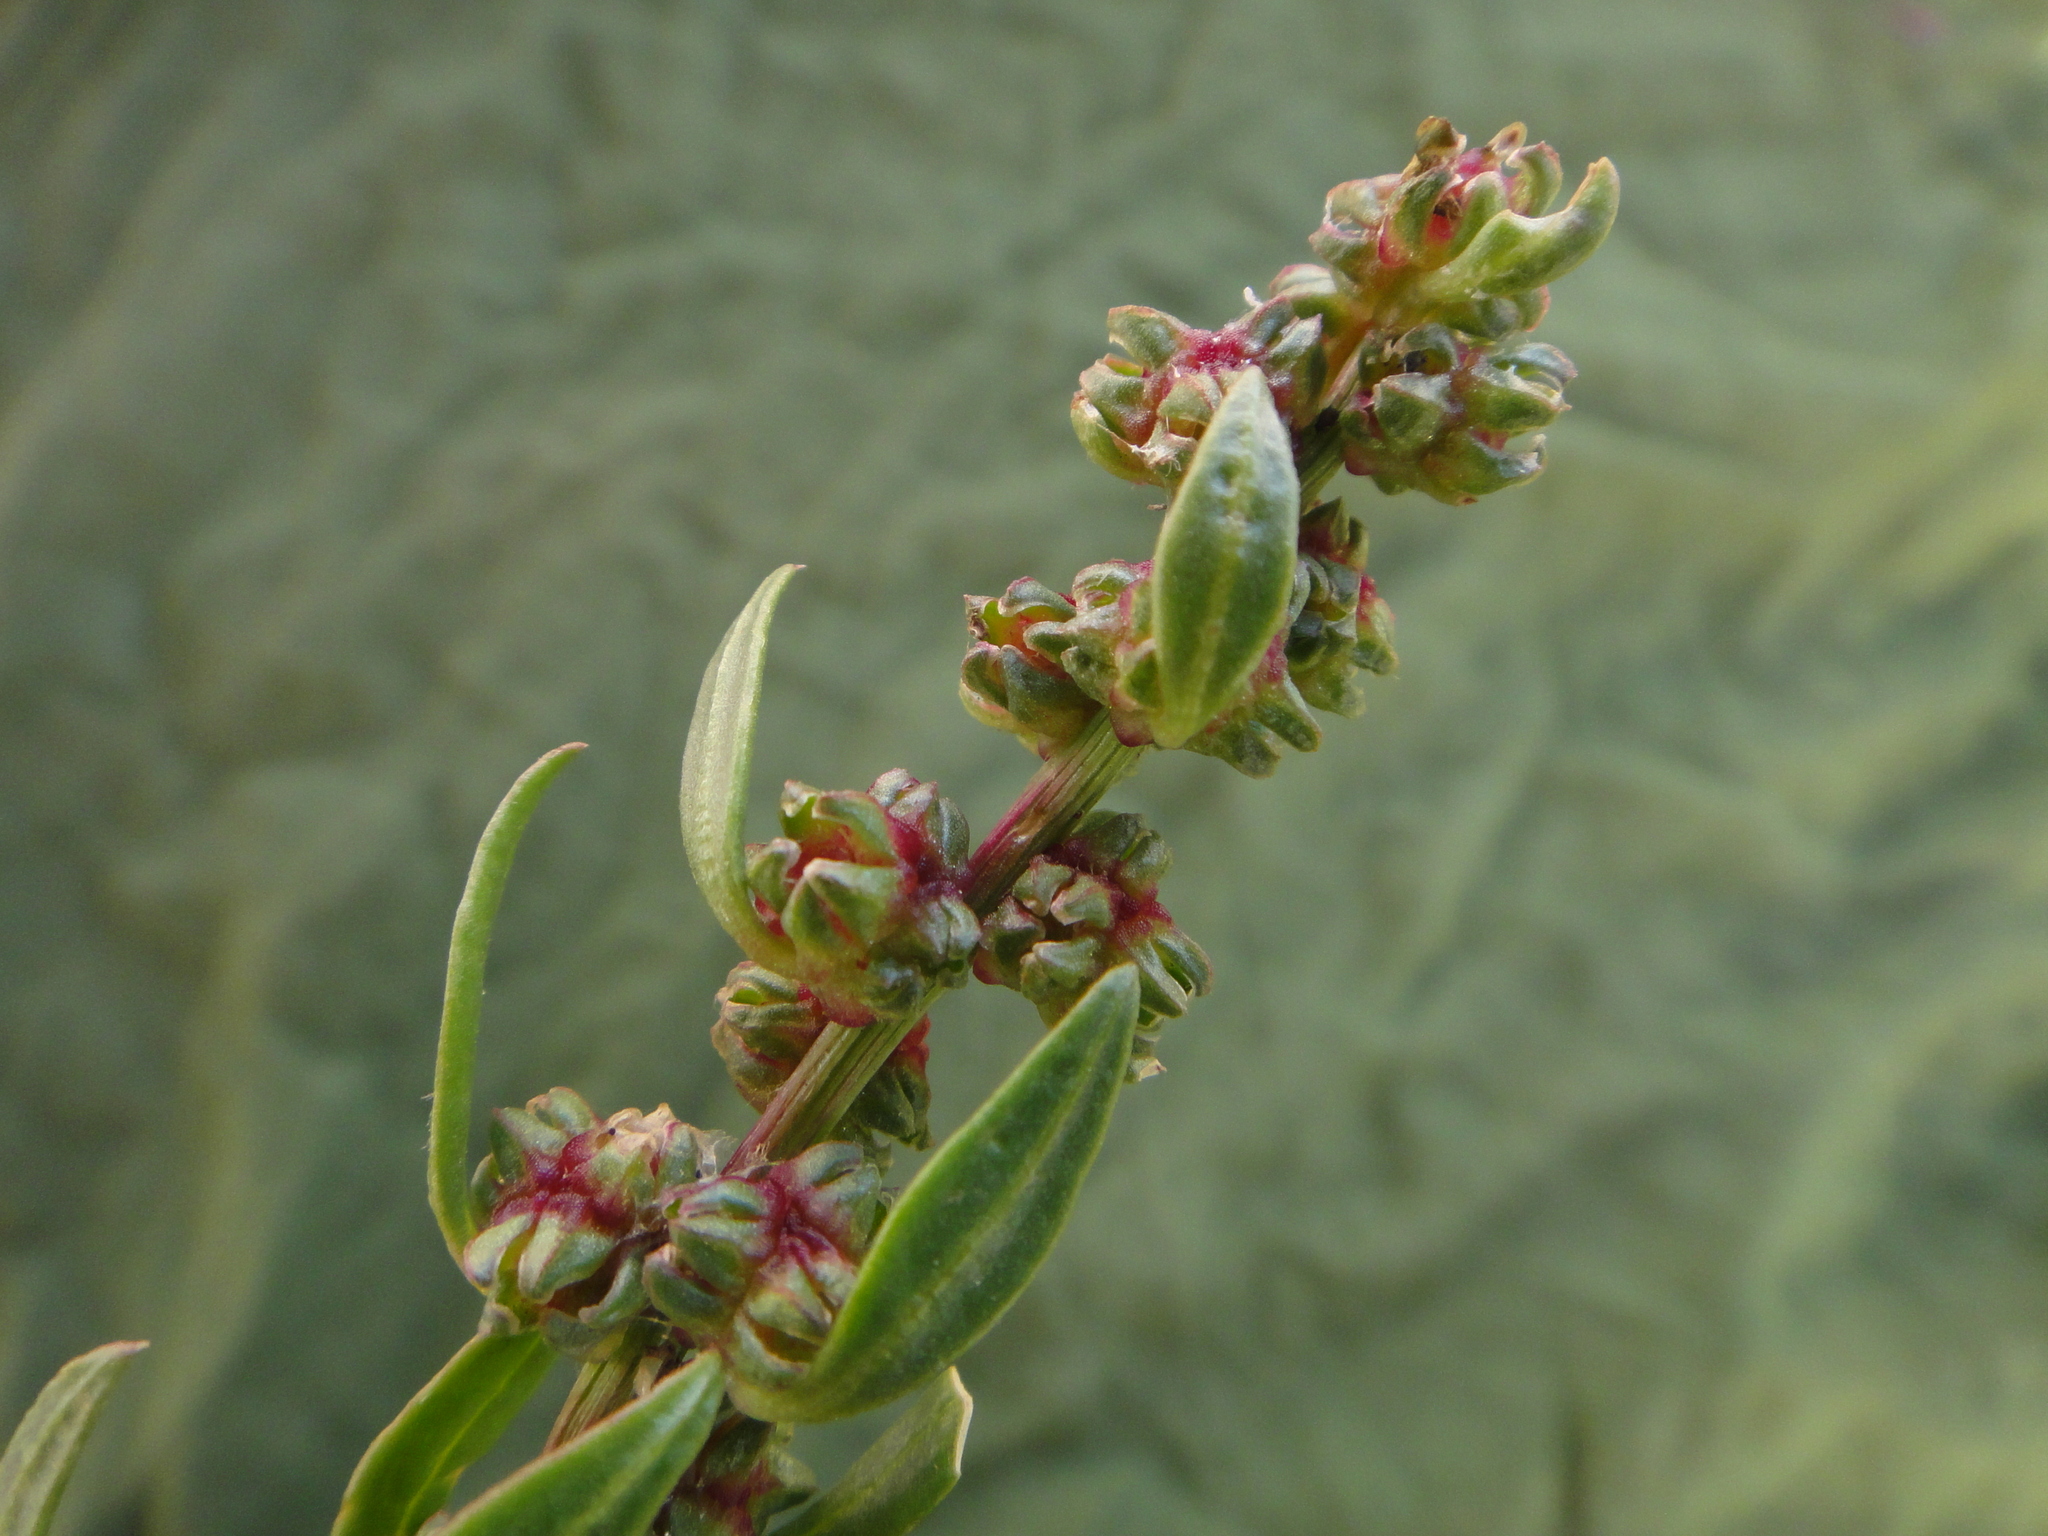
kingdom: Plantae
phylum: Tracheophyta
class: Magnoliopsida
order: Caryophyllales
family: Amaranthaceae
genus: Beta
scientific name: Beta macrocarpa
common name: Beet
